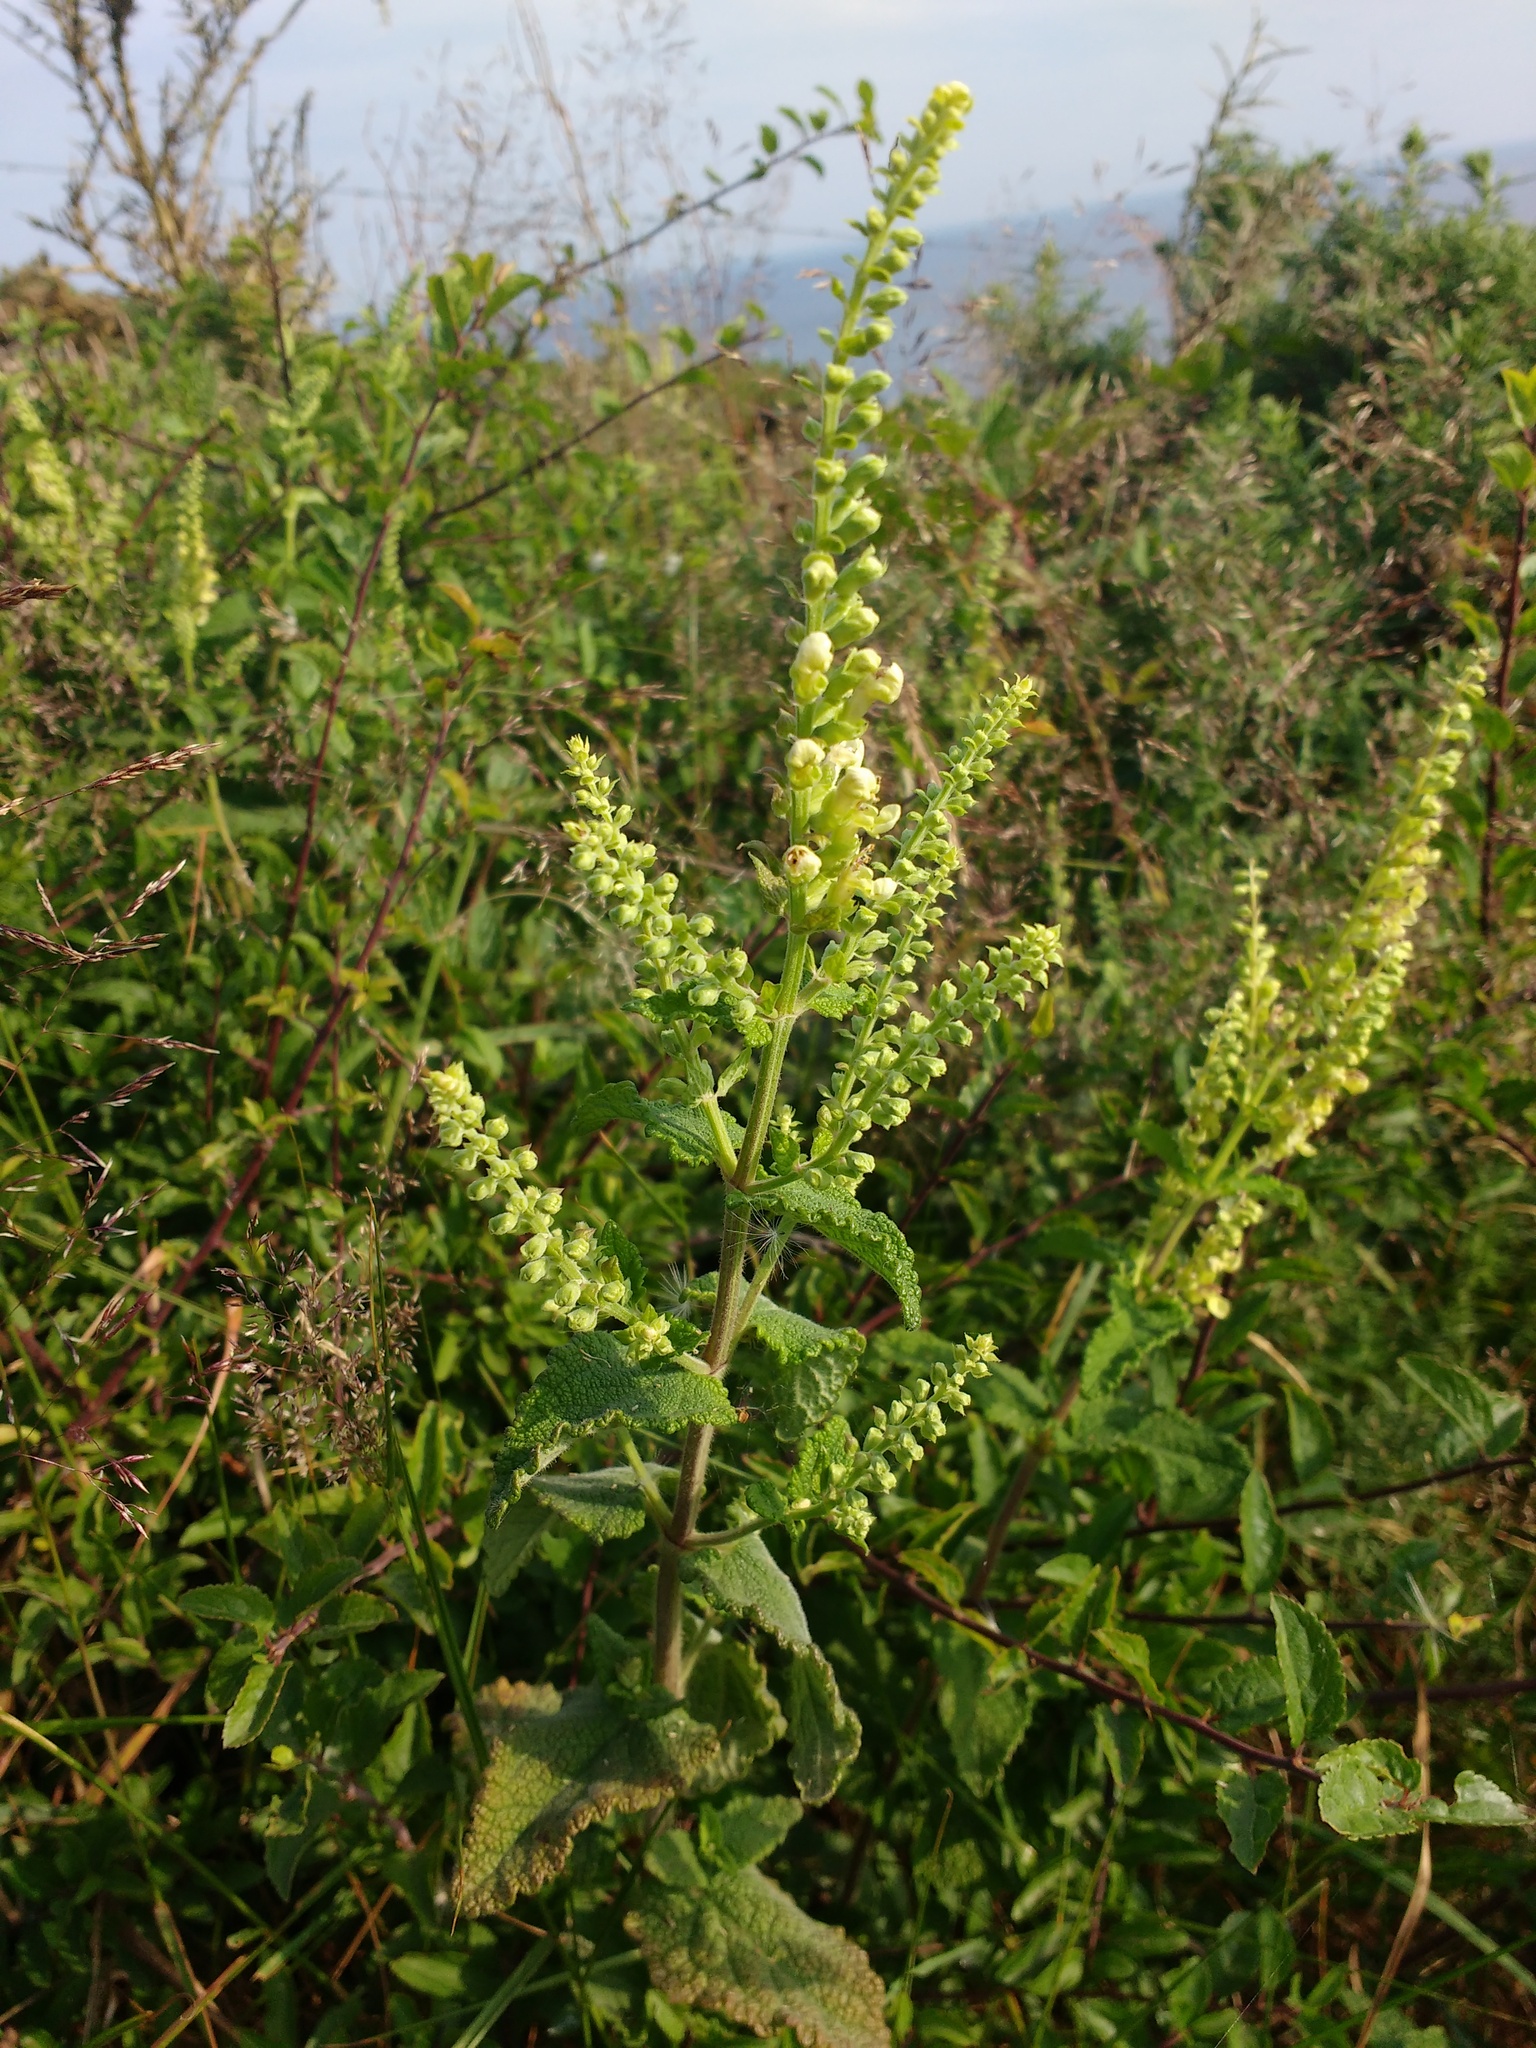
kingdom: Plantae
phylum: Tracheophyta
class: Magnoliopsida
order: Lamiales
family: Lamiaceae
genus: Teucrium
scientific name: Teucrium scorodonia
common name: Woodland germander
